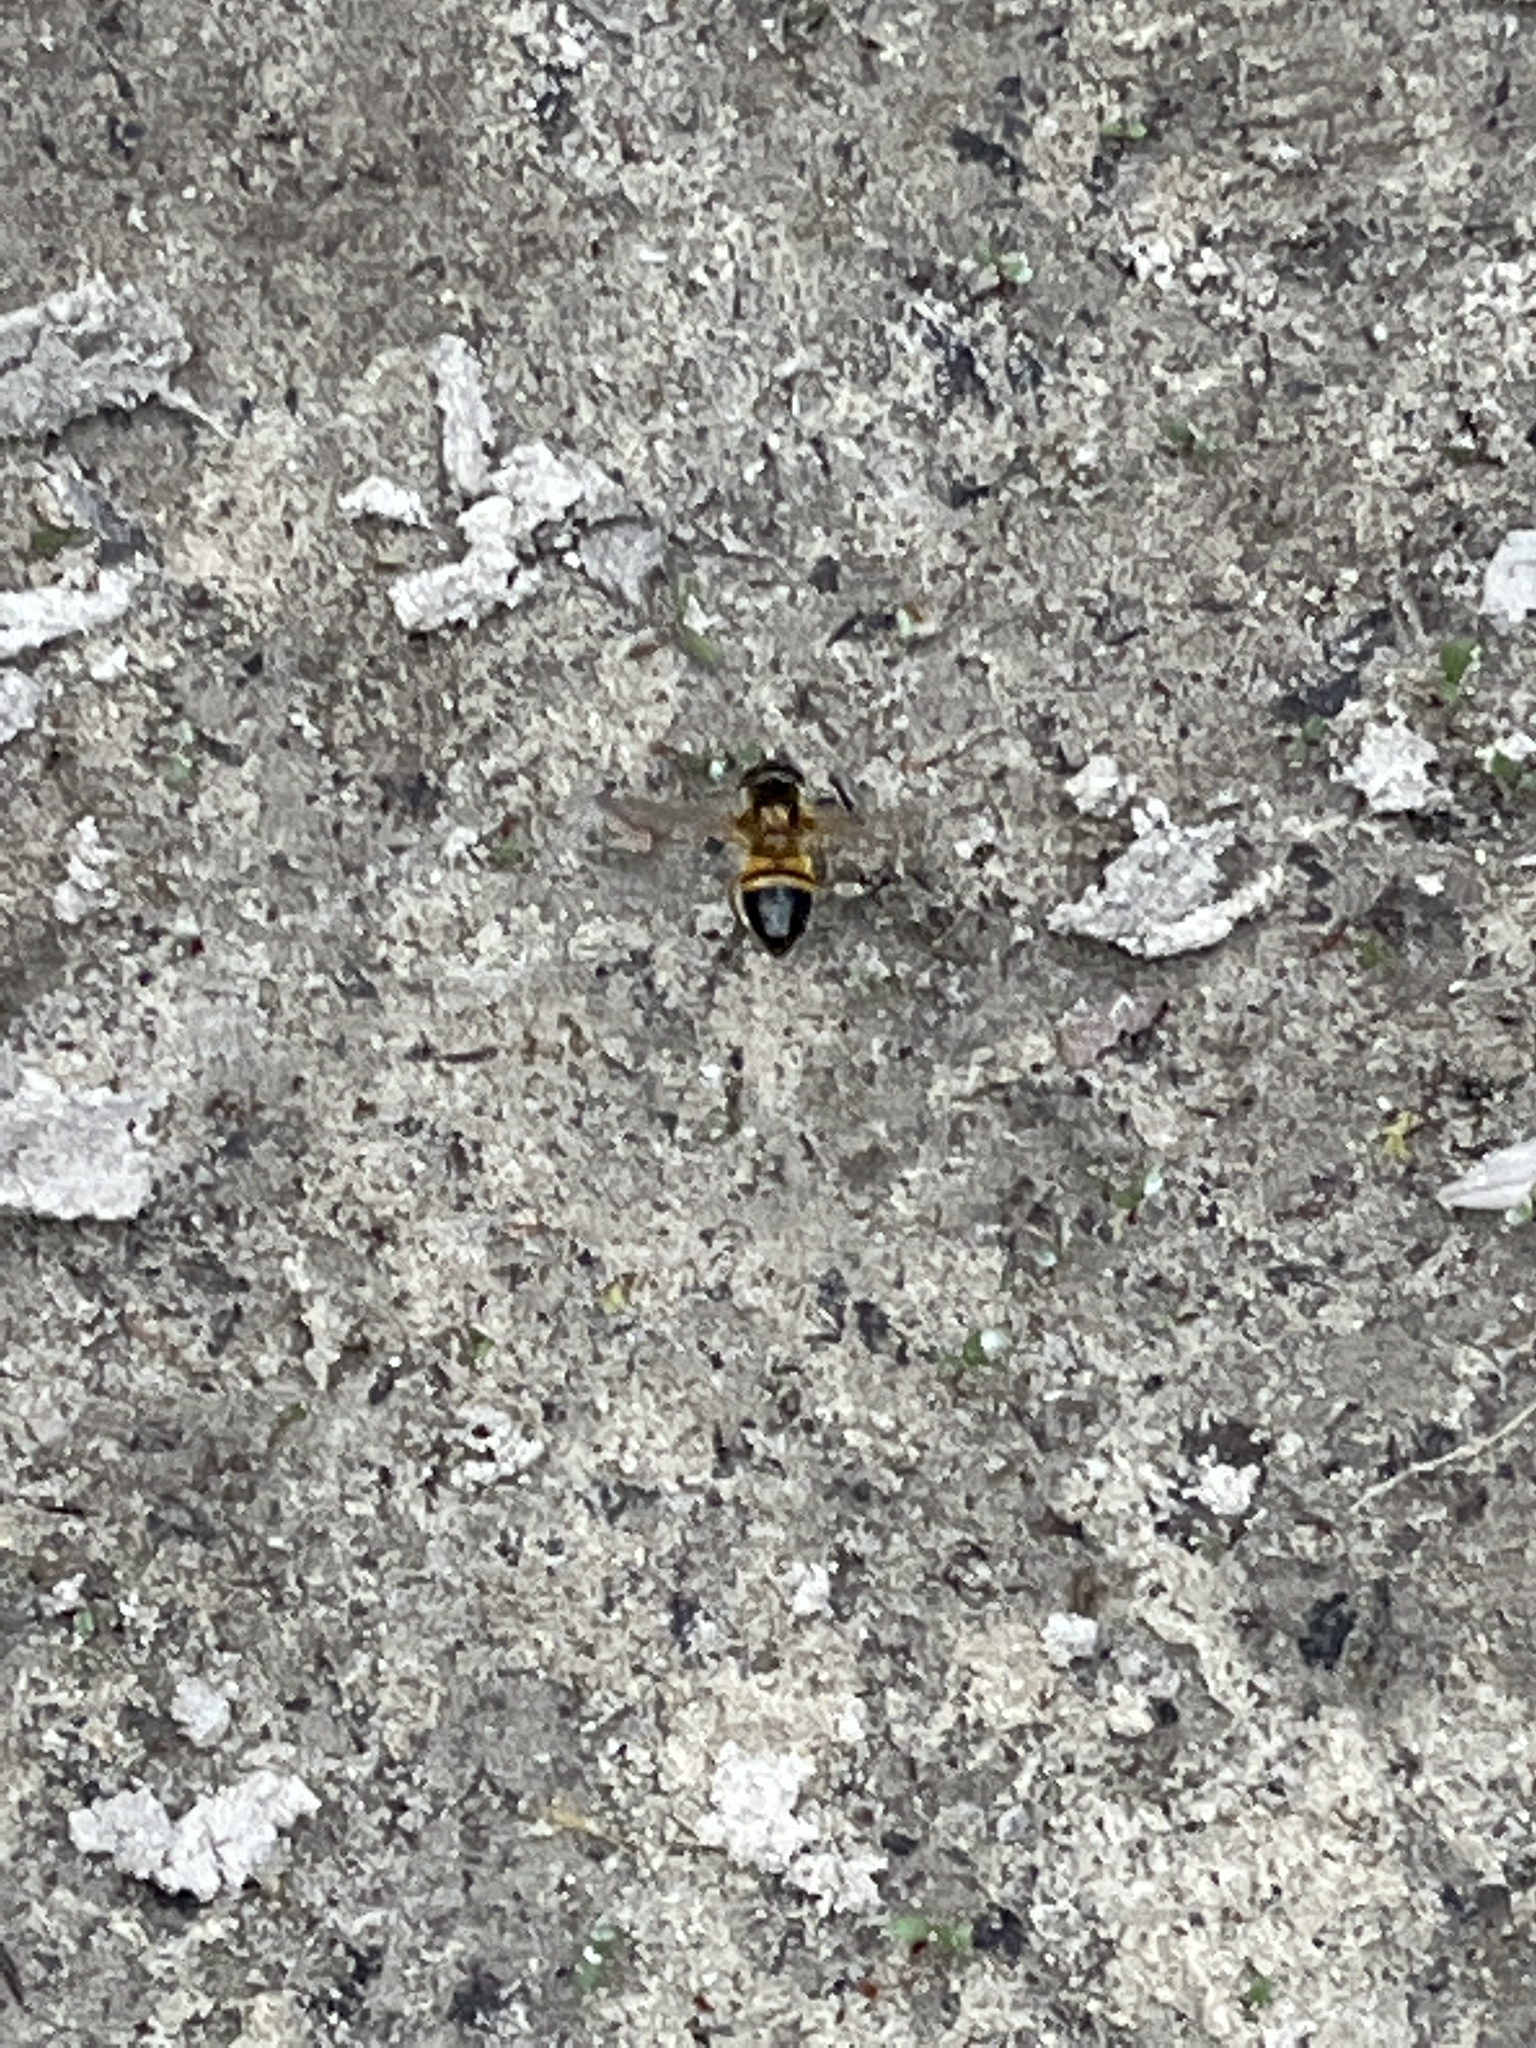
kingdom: Animalia
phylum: Arthropoda
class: Insecta
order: Diptera
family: Syrphidae
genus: Epistrophe
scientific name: Epistrophe eligans
